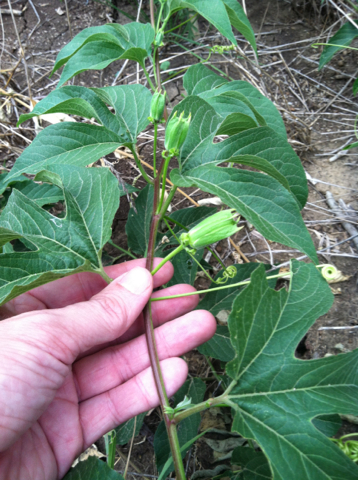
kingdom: Plantae
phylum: Tracheophyta
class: Magnoliopsida
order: Malpighiales
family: Passifloraceae
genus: Passiflora
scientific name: Passiflora incarnata
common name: Apricot-vine
